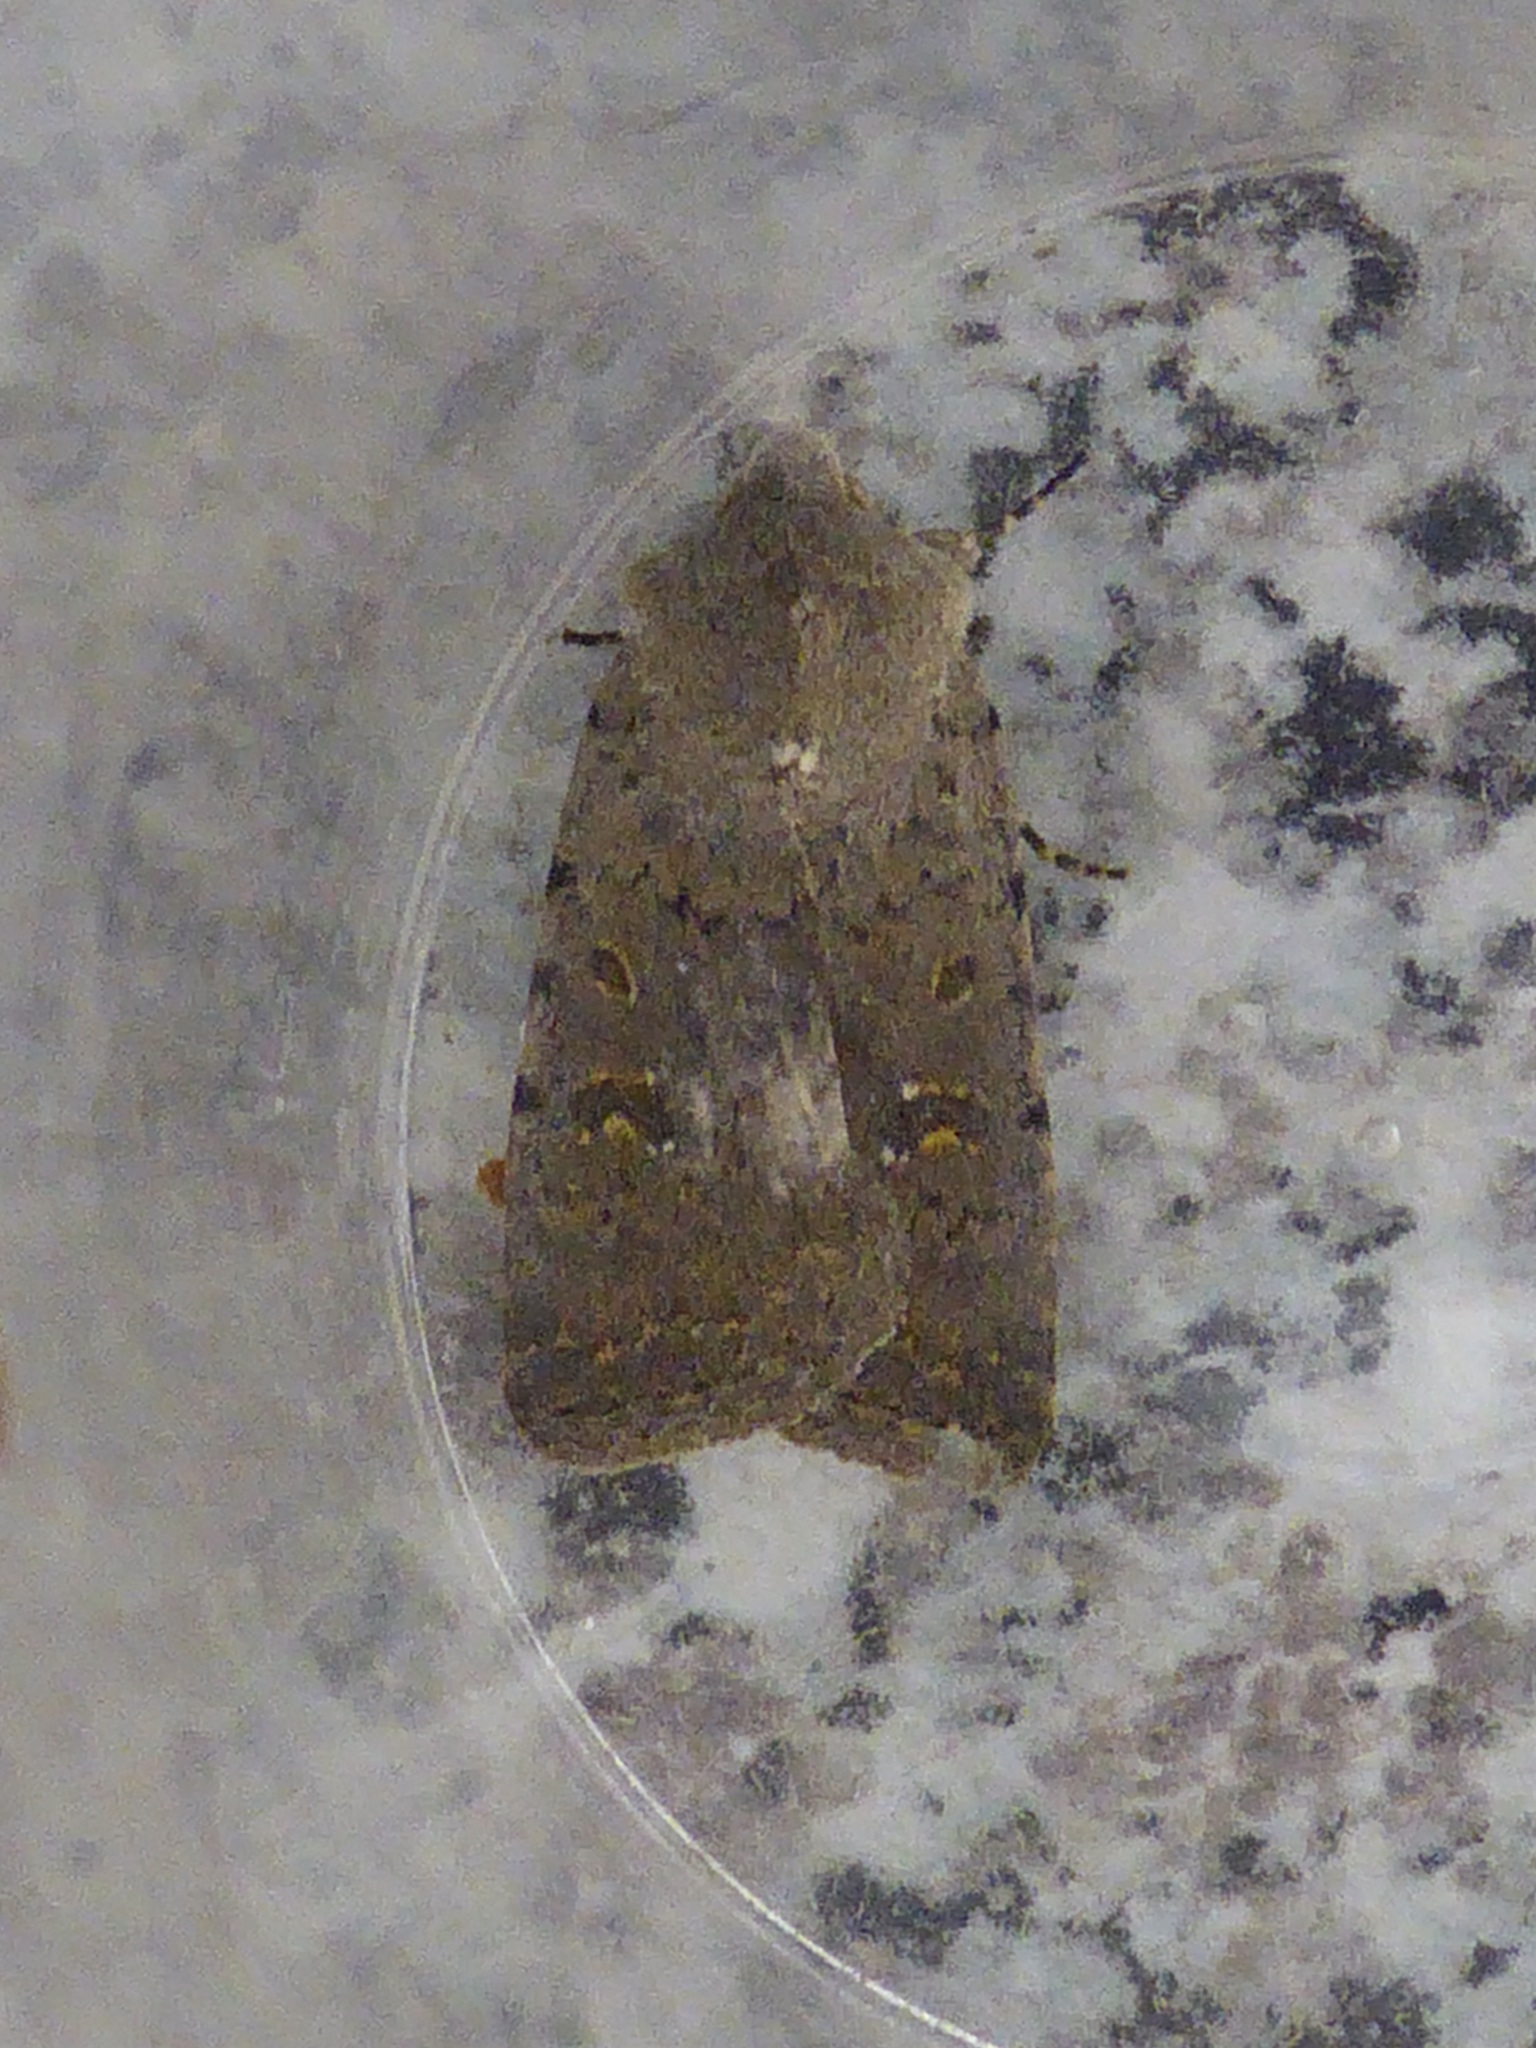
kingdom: Animalia
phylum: Arthropoda
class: Insecta
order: Lepidoptera
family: Noctuidae
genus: Caradrina
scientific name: Caradrina flavirena
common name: Lorimer's rustic
